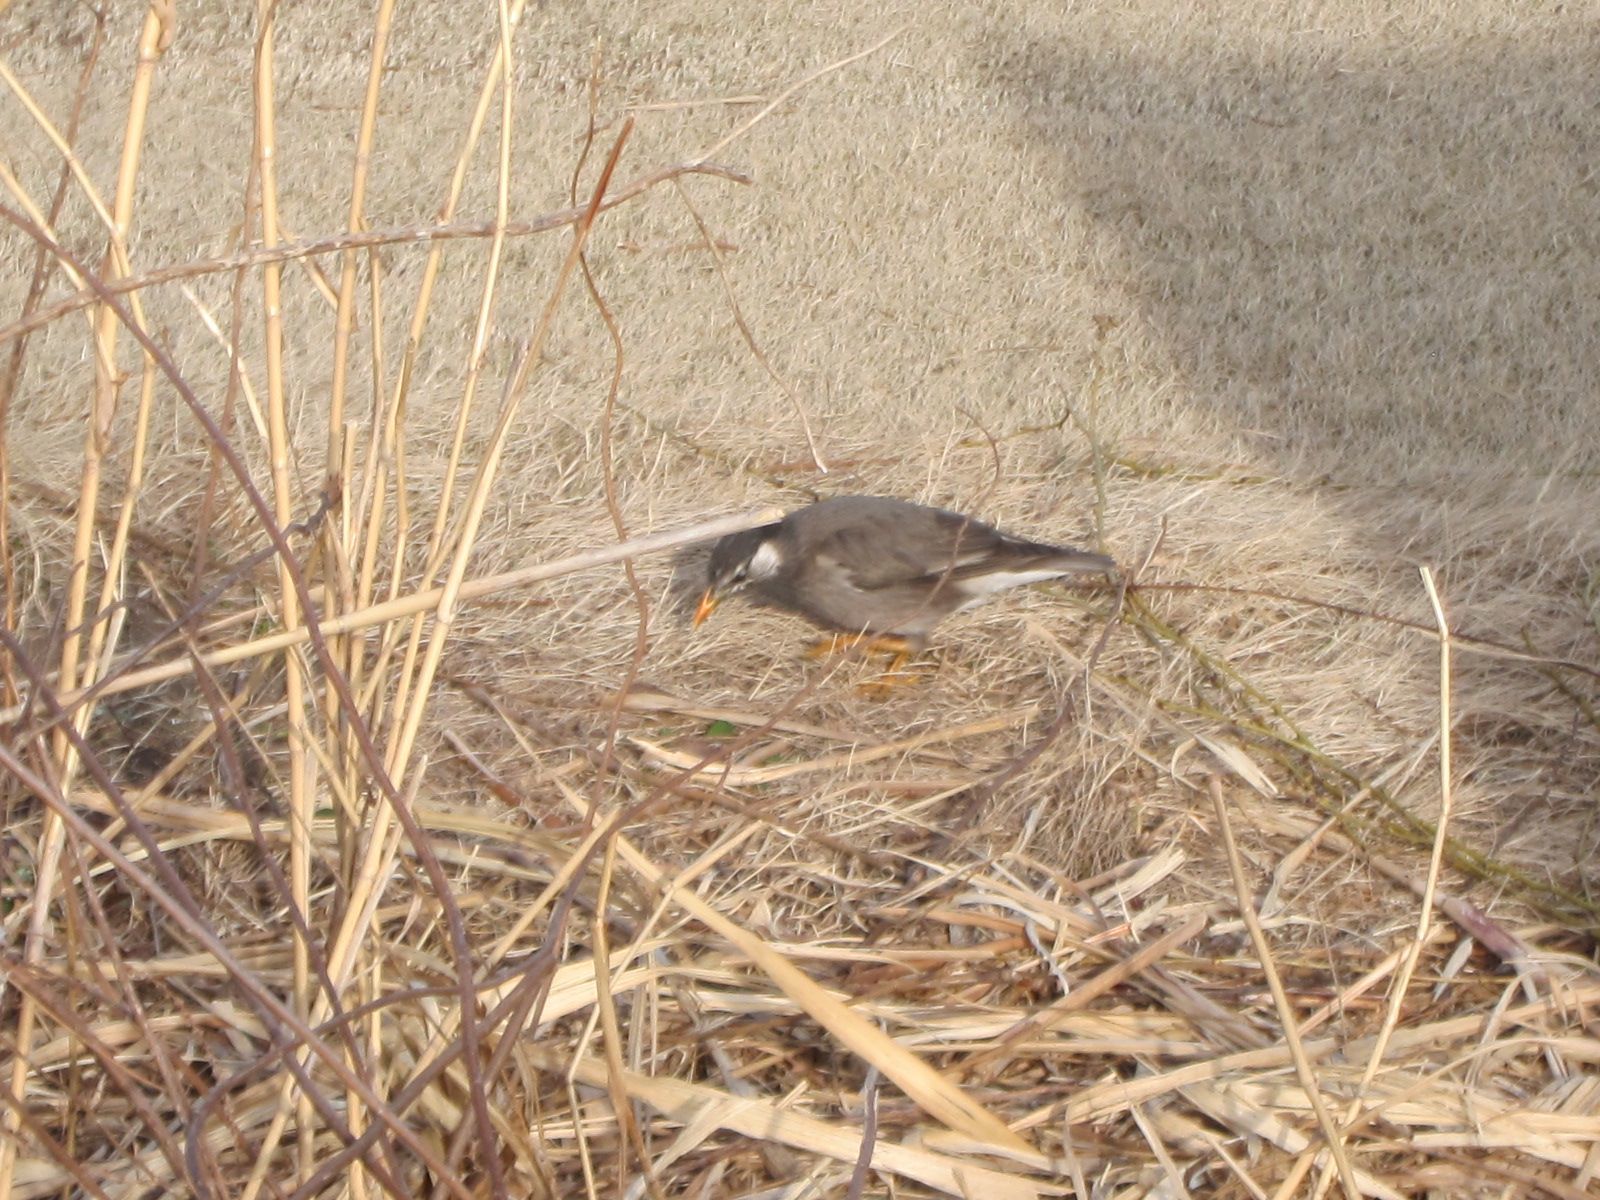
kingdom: Animalia
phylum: Chordata
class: Aves
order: Passeriformes
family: Sturnidae
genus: Spodiopsar
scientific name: Spodiopsar cineraceus
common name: White-cheeked starling
